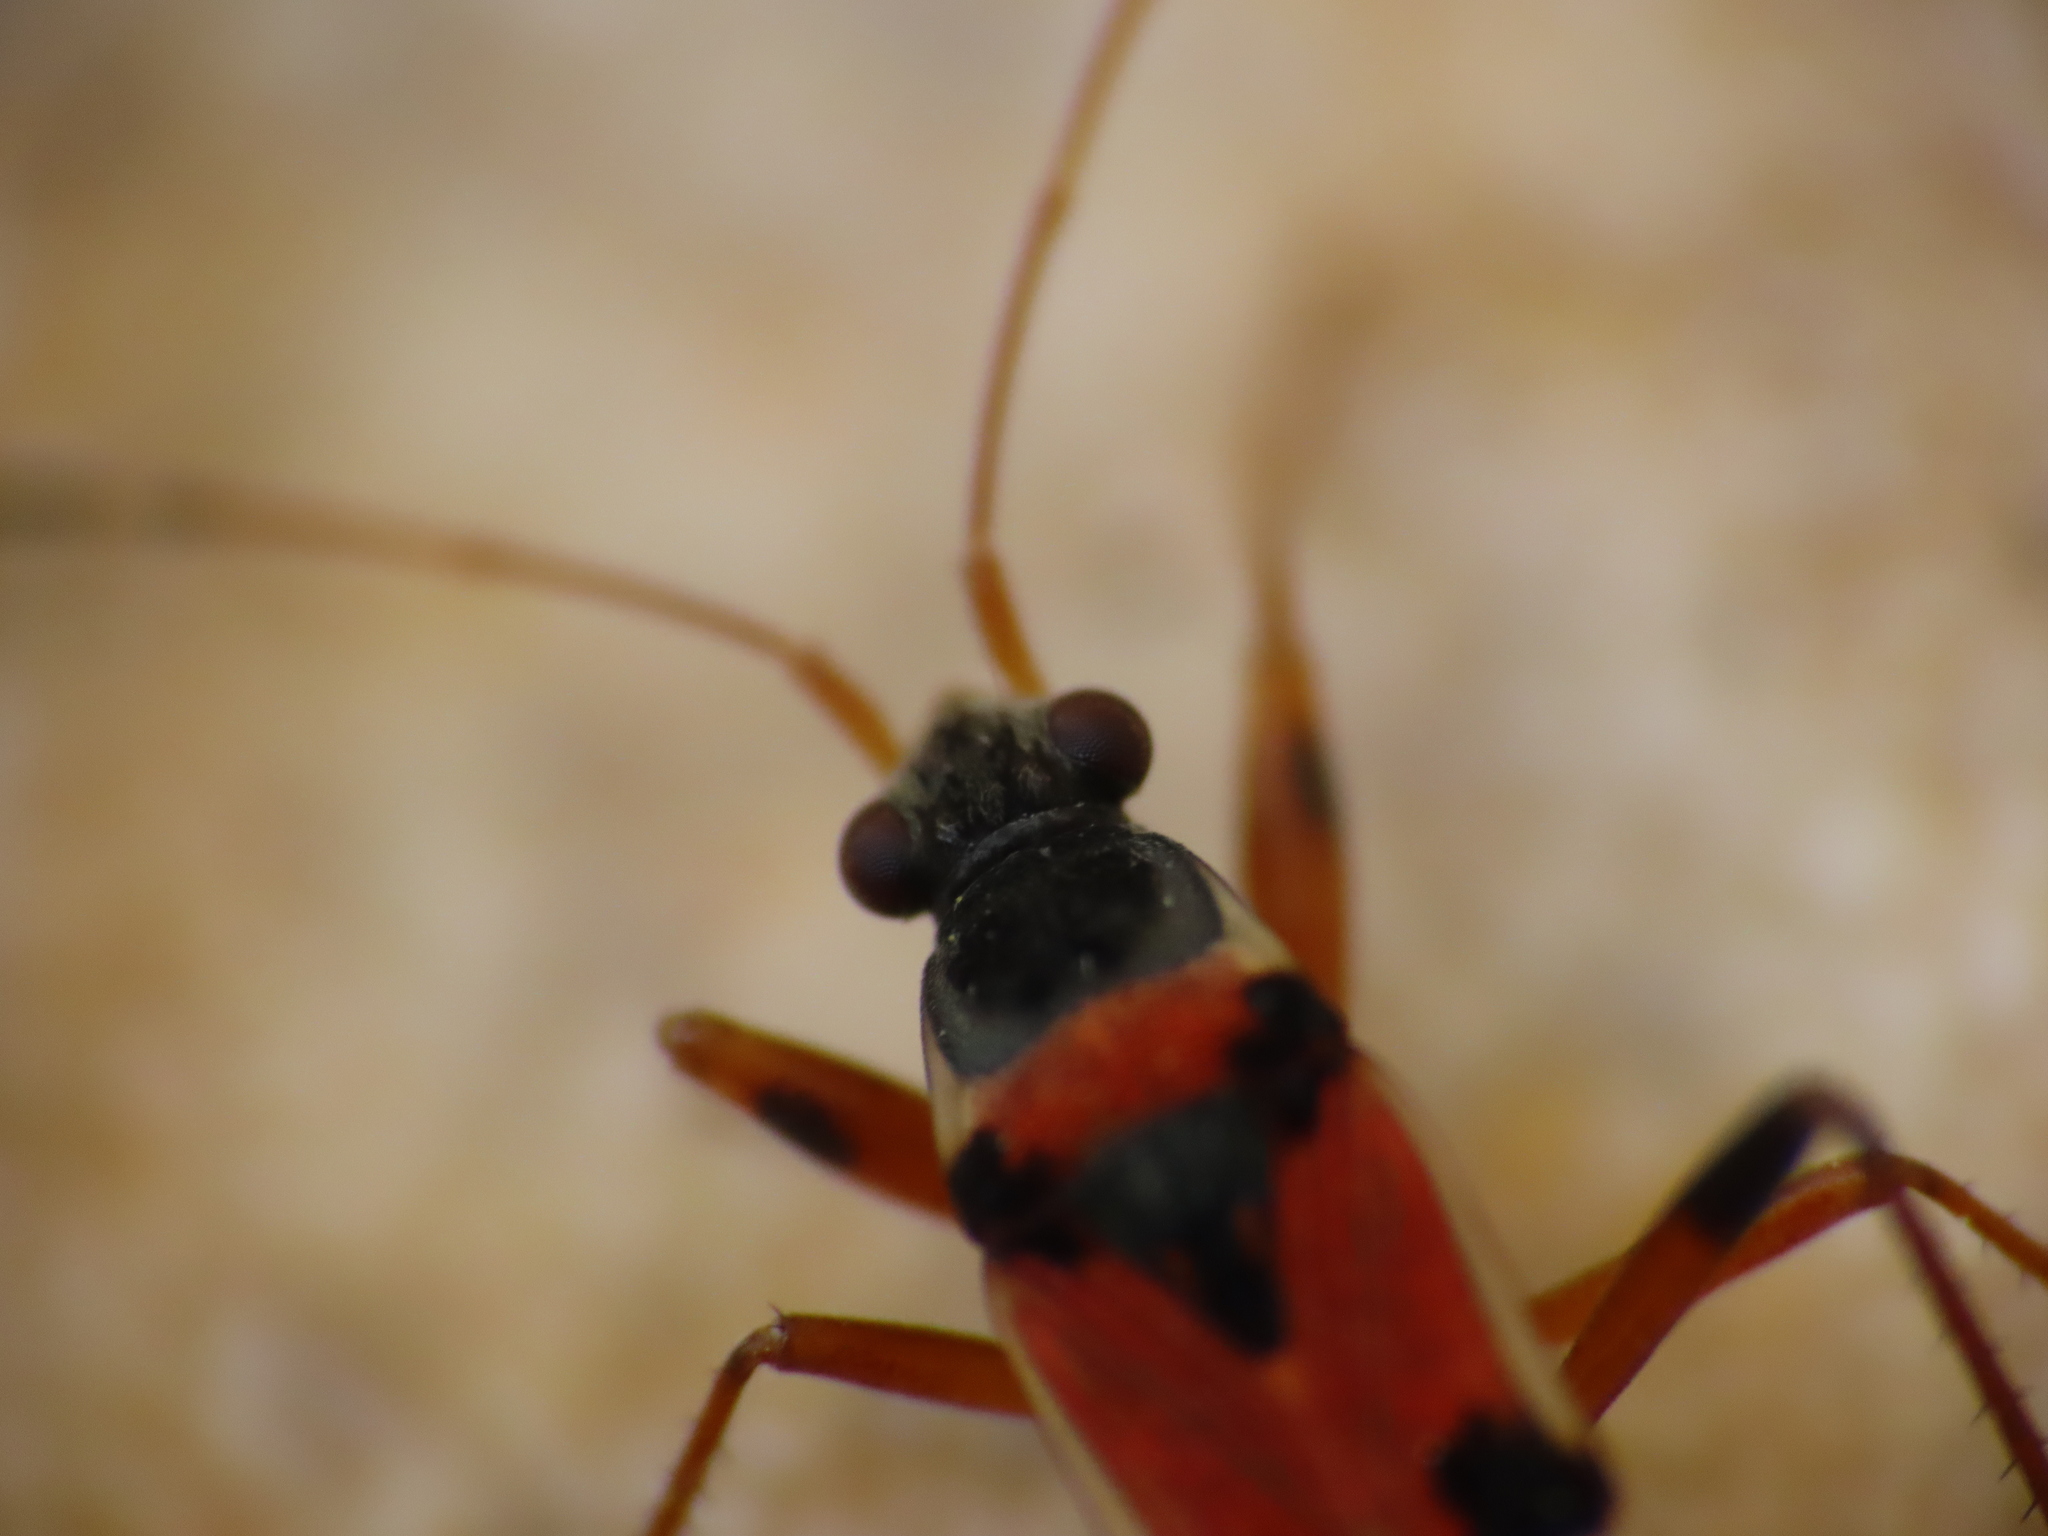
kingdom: Animalia
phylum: Arthropoda
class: Insecta
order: Hemiptera
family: Rhyparochromidae
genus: Beosus
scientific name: Beosus quadripunctatus
